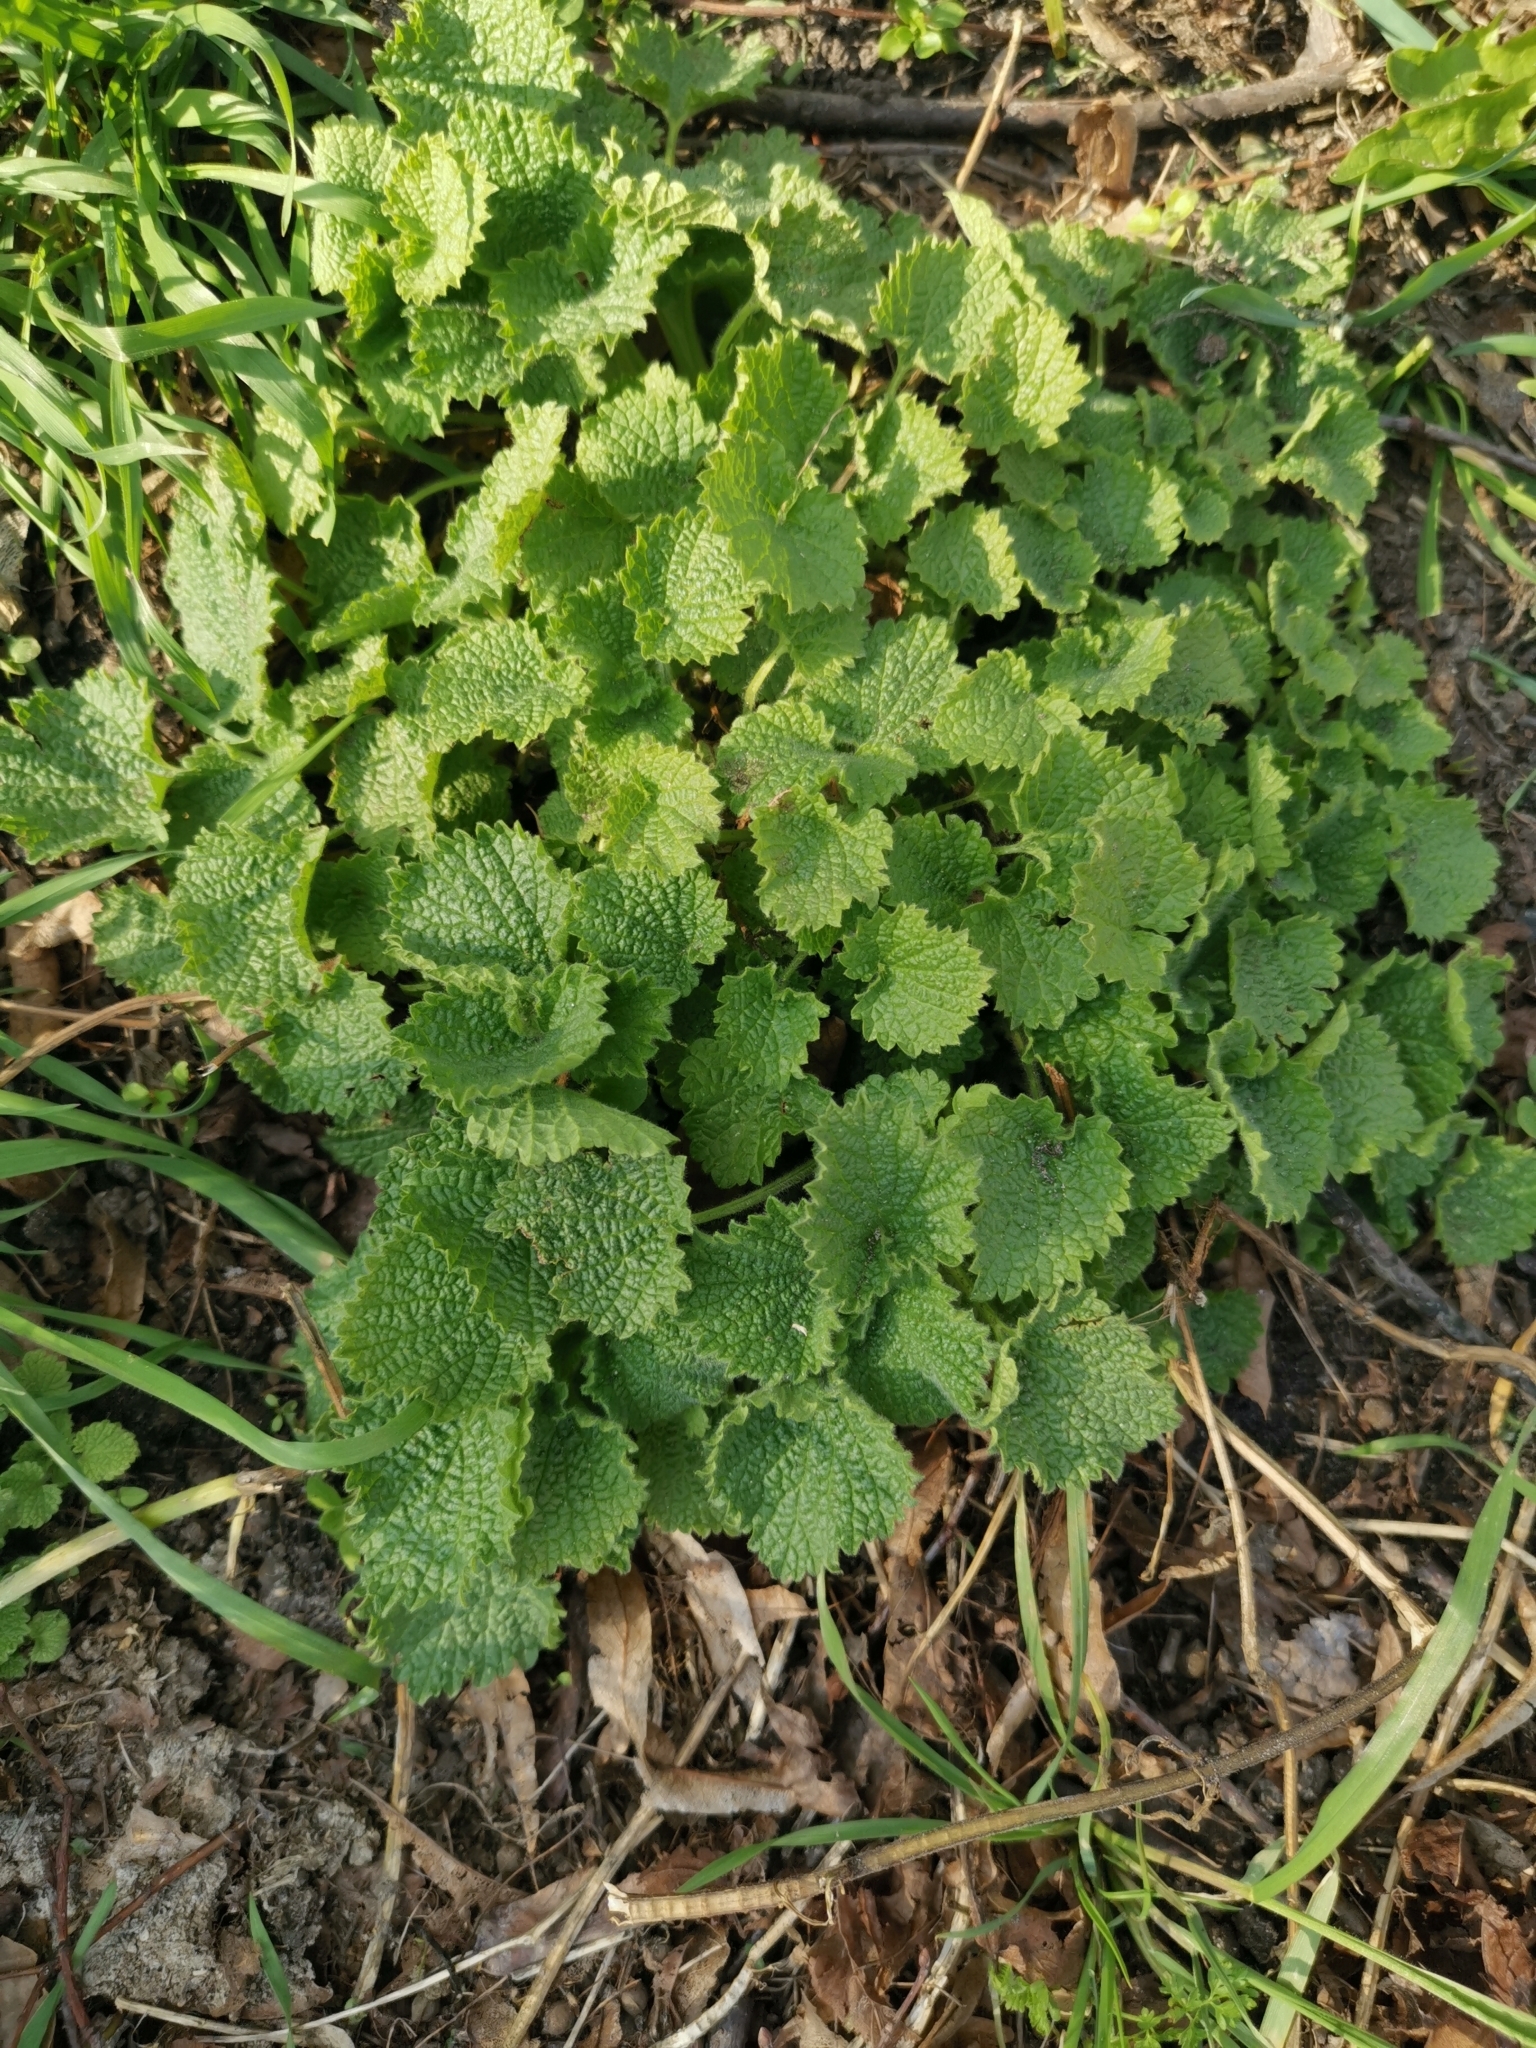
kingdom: Plantae
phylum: Tracheophyta
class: Magnoliopsida
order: Lamiales
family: Lamiaceae
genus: Ballota
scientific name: Ballota nigra
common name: Black horehound
